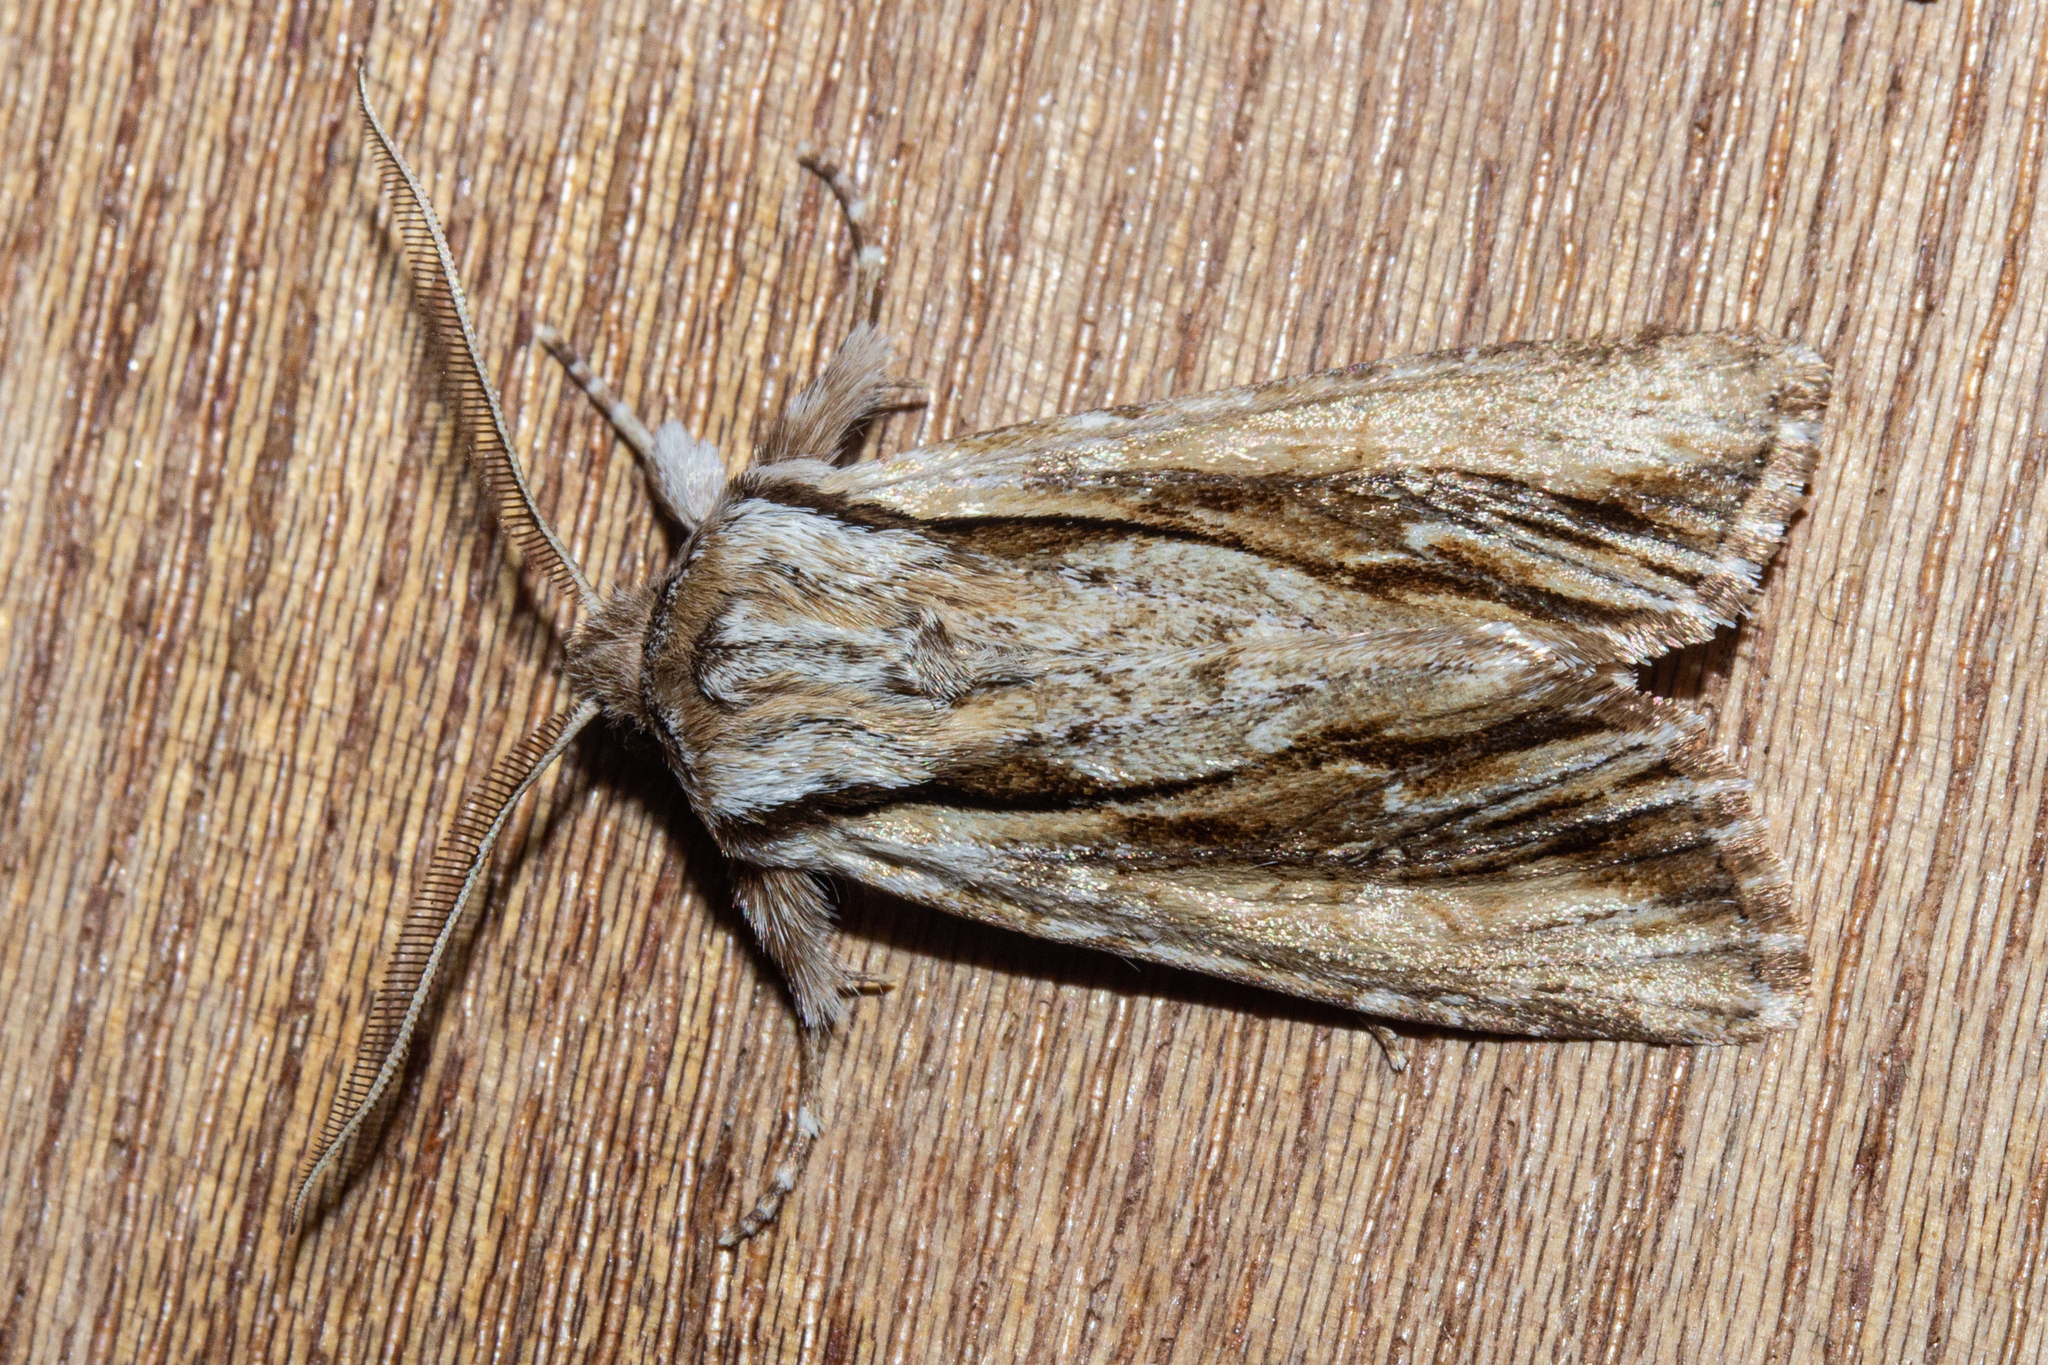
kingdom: Animalia
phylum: Arthropoda
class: Insecta
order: Lepidoptera
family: Noctuidae
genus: Ichneutica
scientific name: Ichneutica
